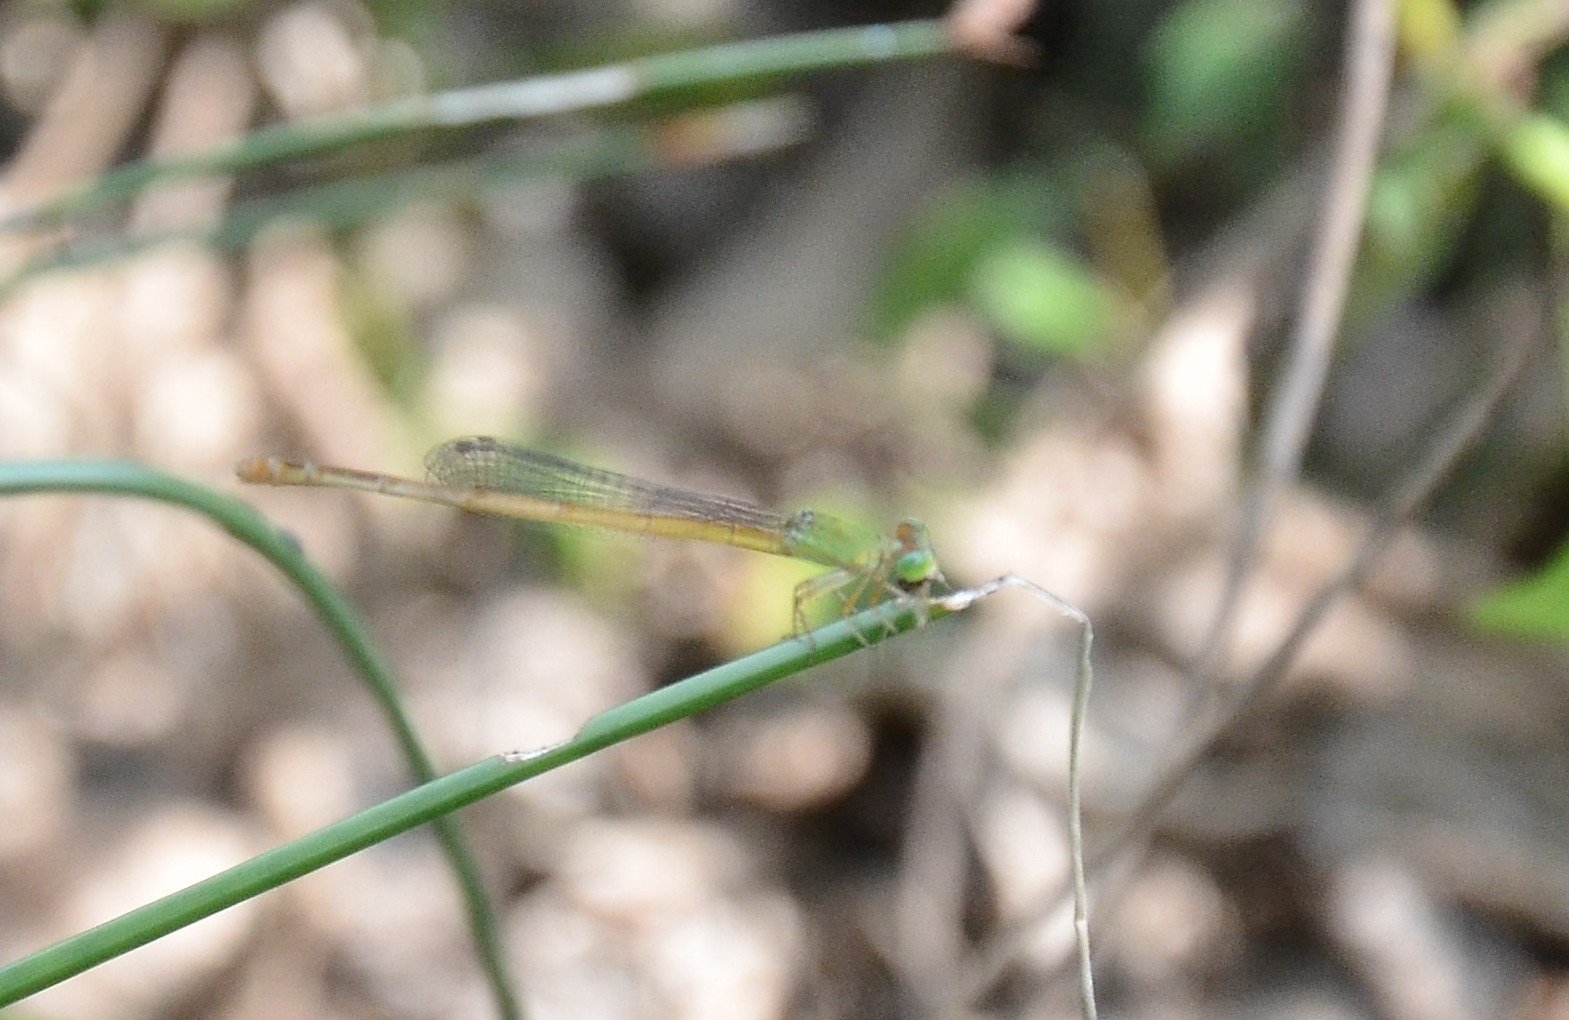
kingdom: Animalia
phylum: Arthropoda
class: Insecta
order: Odonata
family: Coenagrionidae
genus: Ceriagrion
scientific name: Ceriagrion coromandelianum
